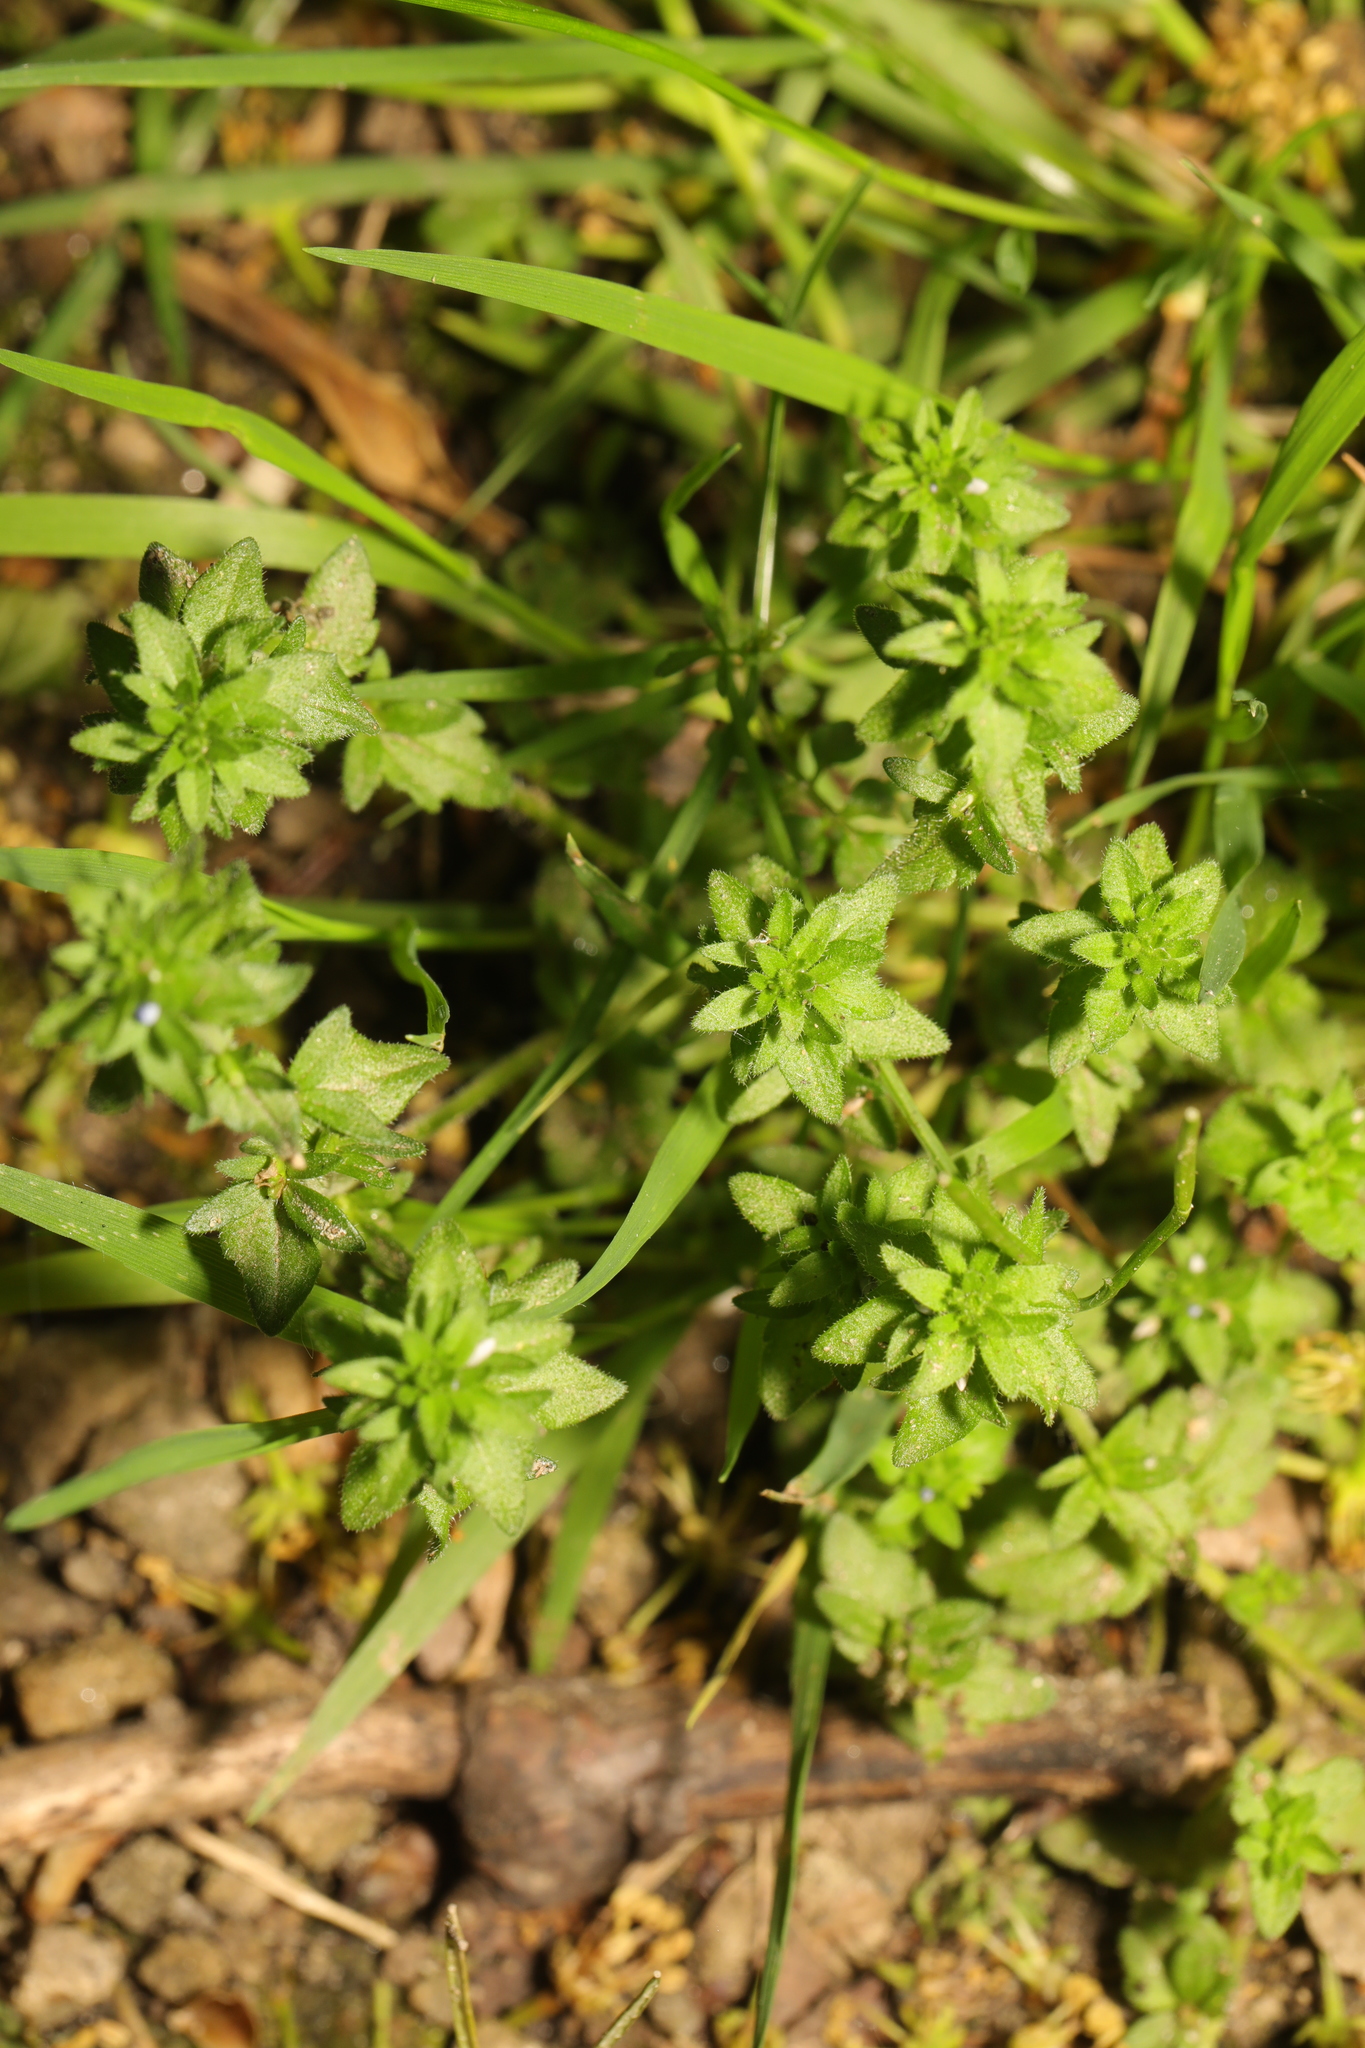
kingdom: Plantae
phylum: Tracheophyta
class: Magnoliopsida
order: Lamiales
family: Plantaginaceae
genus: Veronica
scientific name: Veronica arvensis
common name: Corn speedwell
